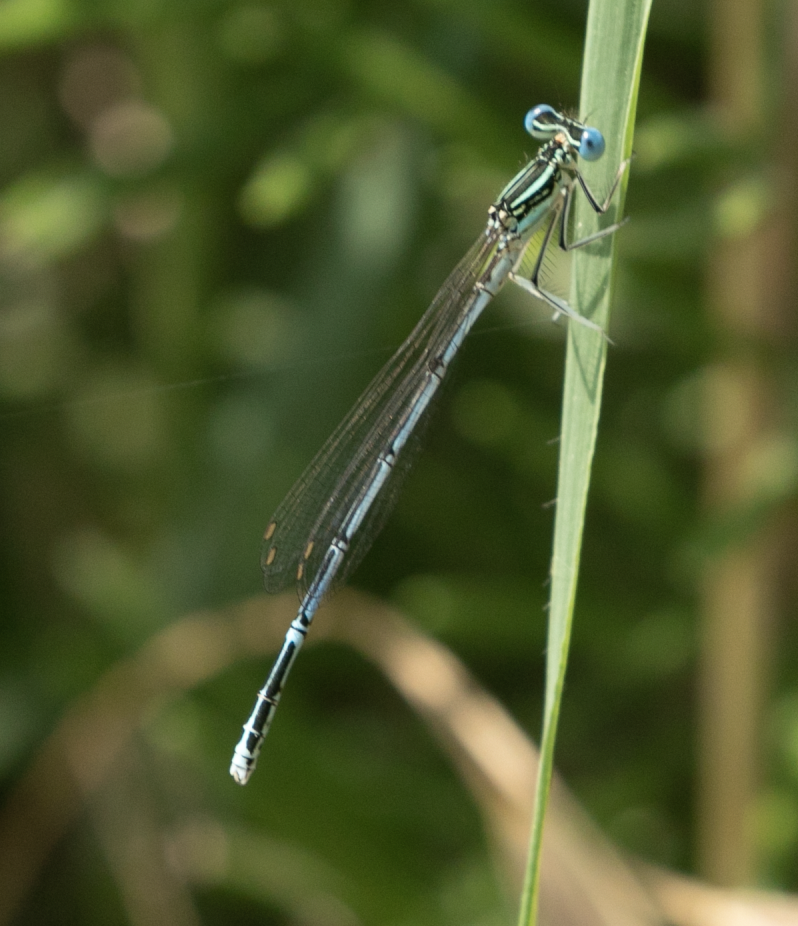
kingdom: Animalia
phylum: Arthropoda
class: Insecta
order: Odonata
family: Platycnemididae
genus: Platycnemis
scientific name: Platycnemis pennipes
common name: White-legged damselfly
